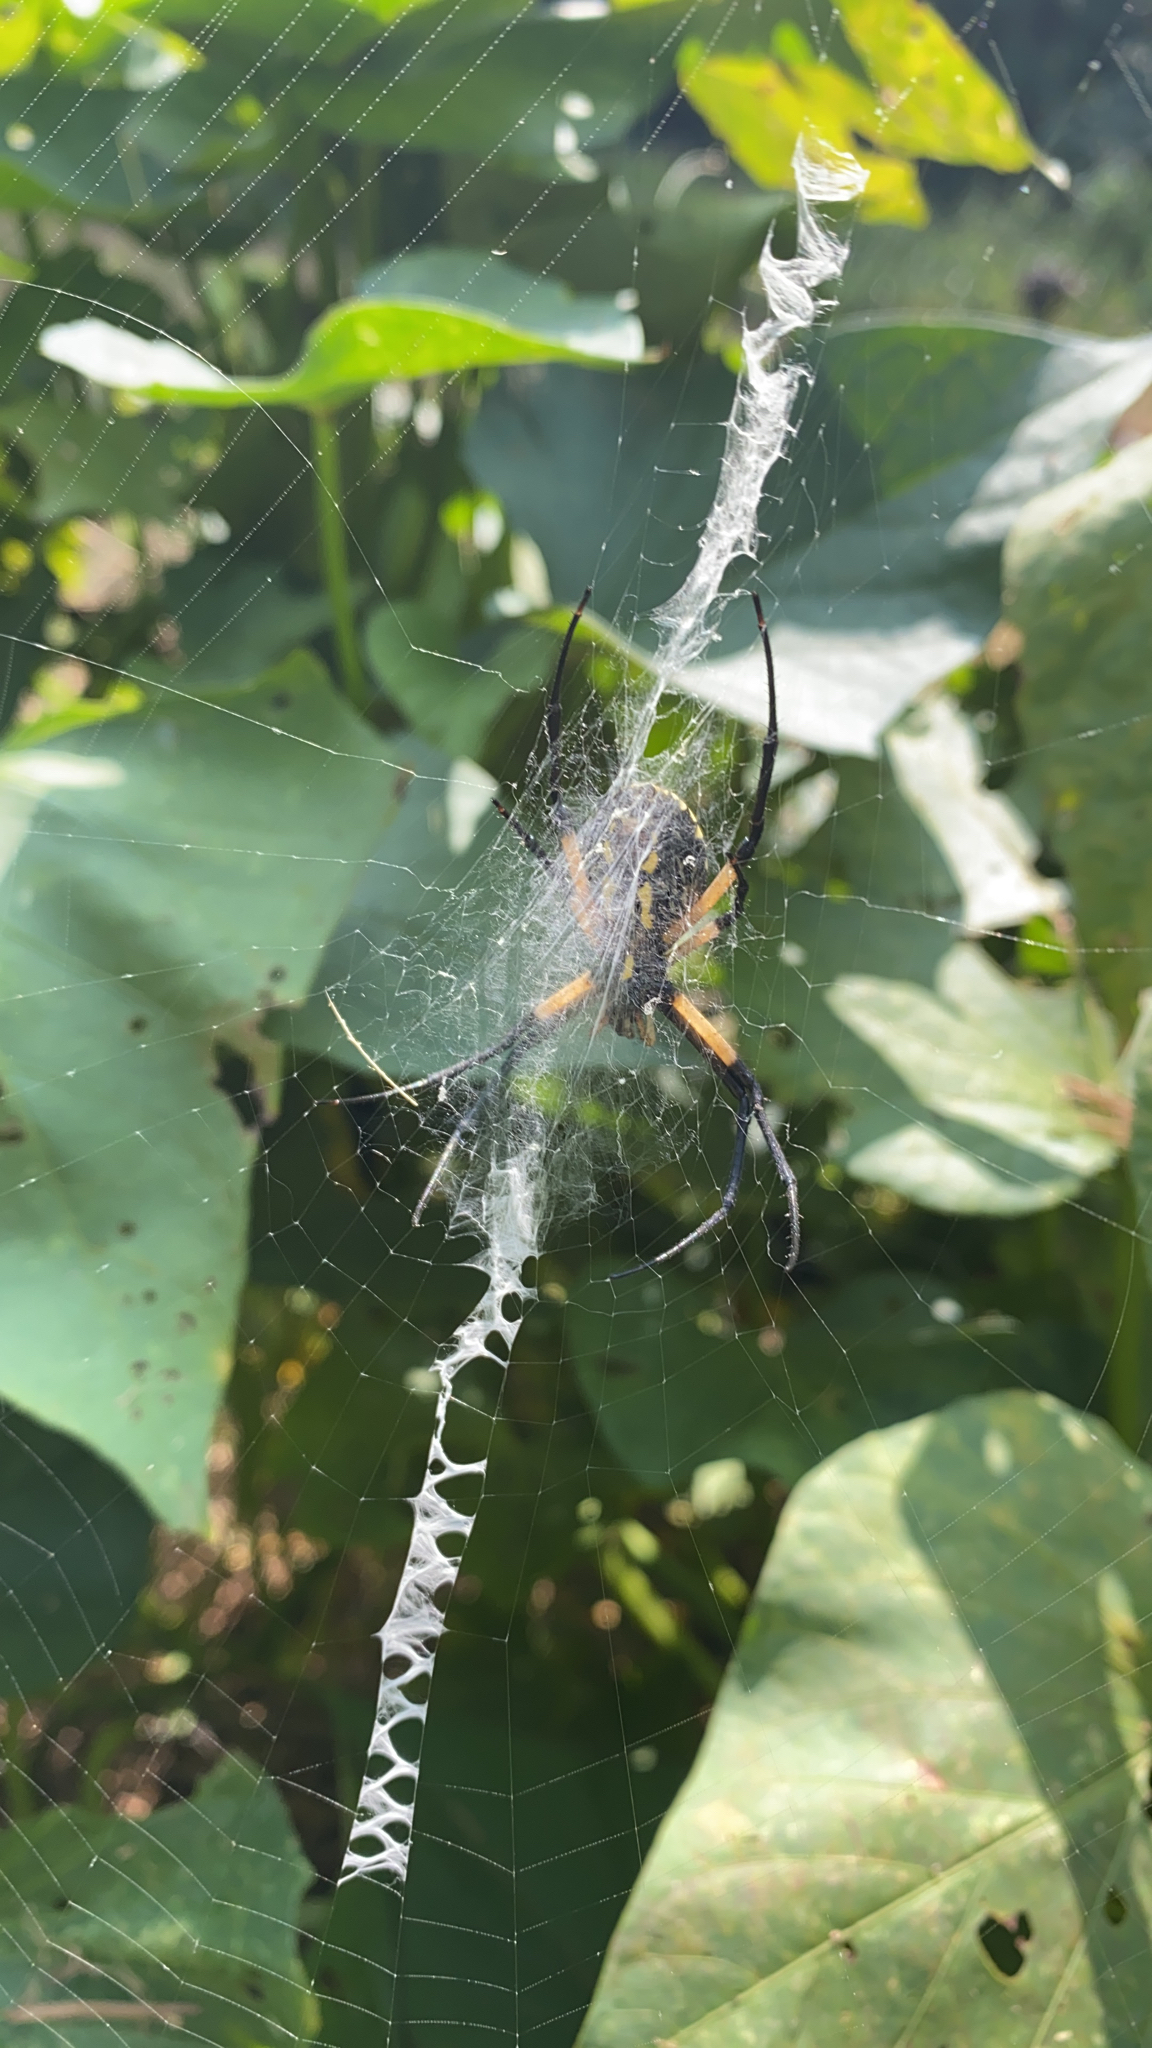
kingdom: Animalia
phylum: Arthropoda
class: Arachnida
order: Araneae
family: Araneidae
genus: Argiope
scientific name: Argiope aurantia
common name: Orb weavers
